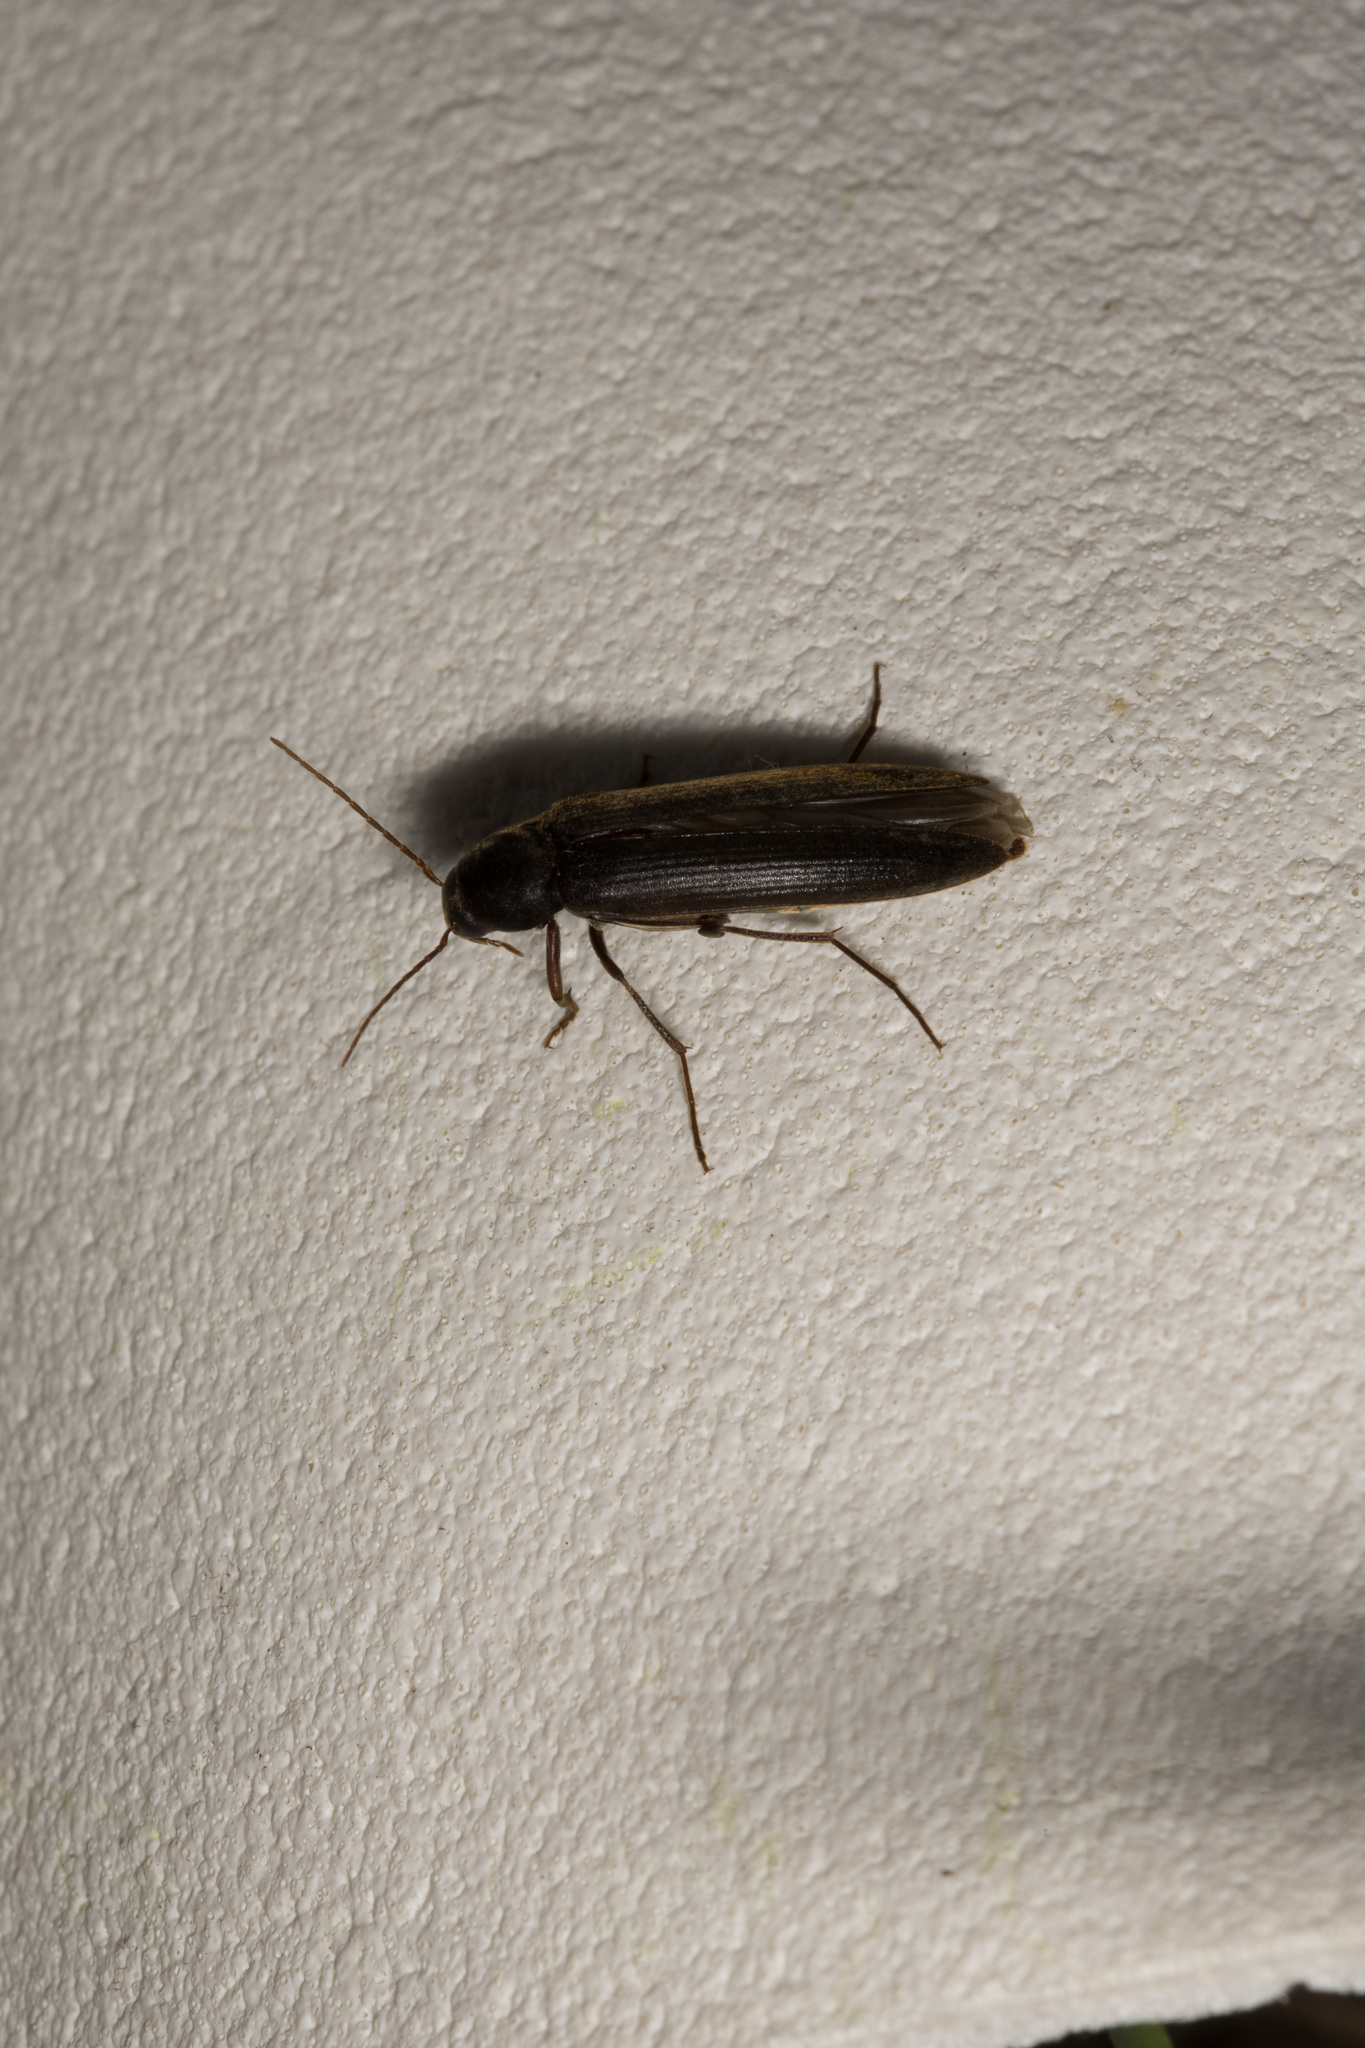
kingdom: Animalia
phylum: Arthropoda
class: Insecta
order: Coleoptera
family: Melandryidae
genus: Serropalpus
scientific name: Serropalpus barbatus
